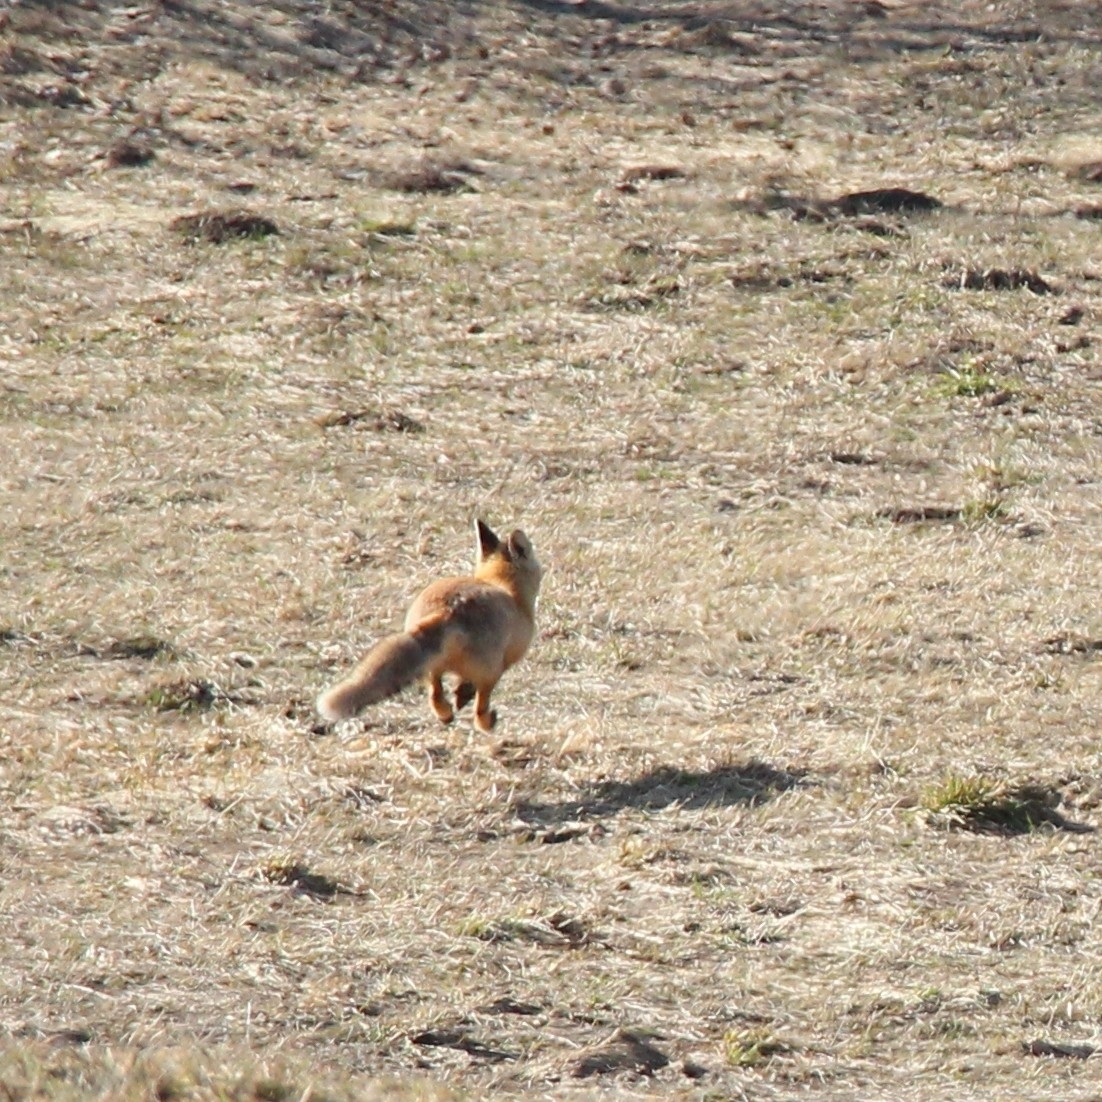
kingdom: Animalia
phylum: Chordata
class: Mammalia
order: Carnivora
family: Canidae
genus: Vulpes
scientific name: Vulpes vulpes
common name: Red fox
